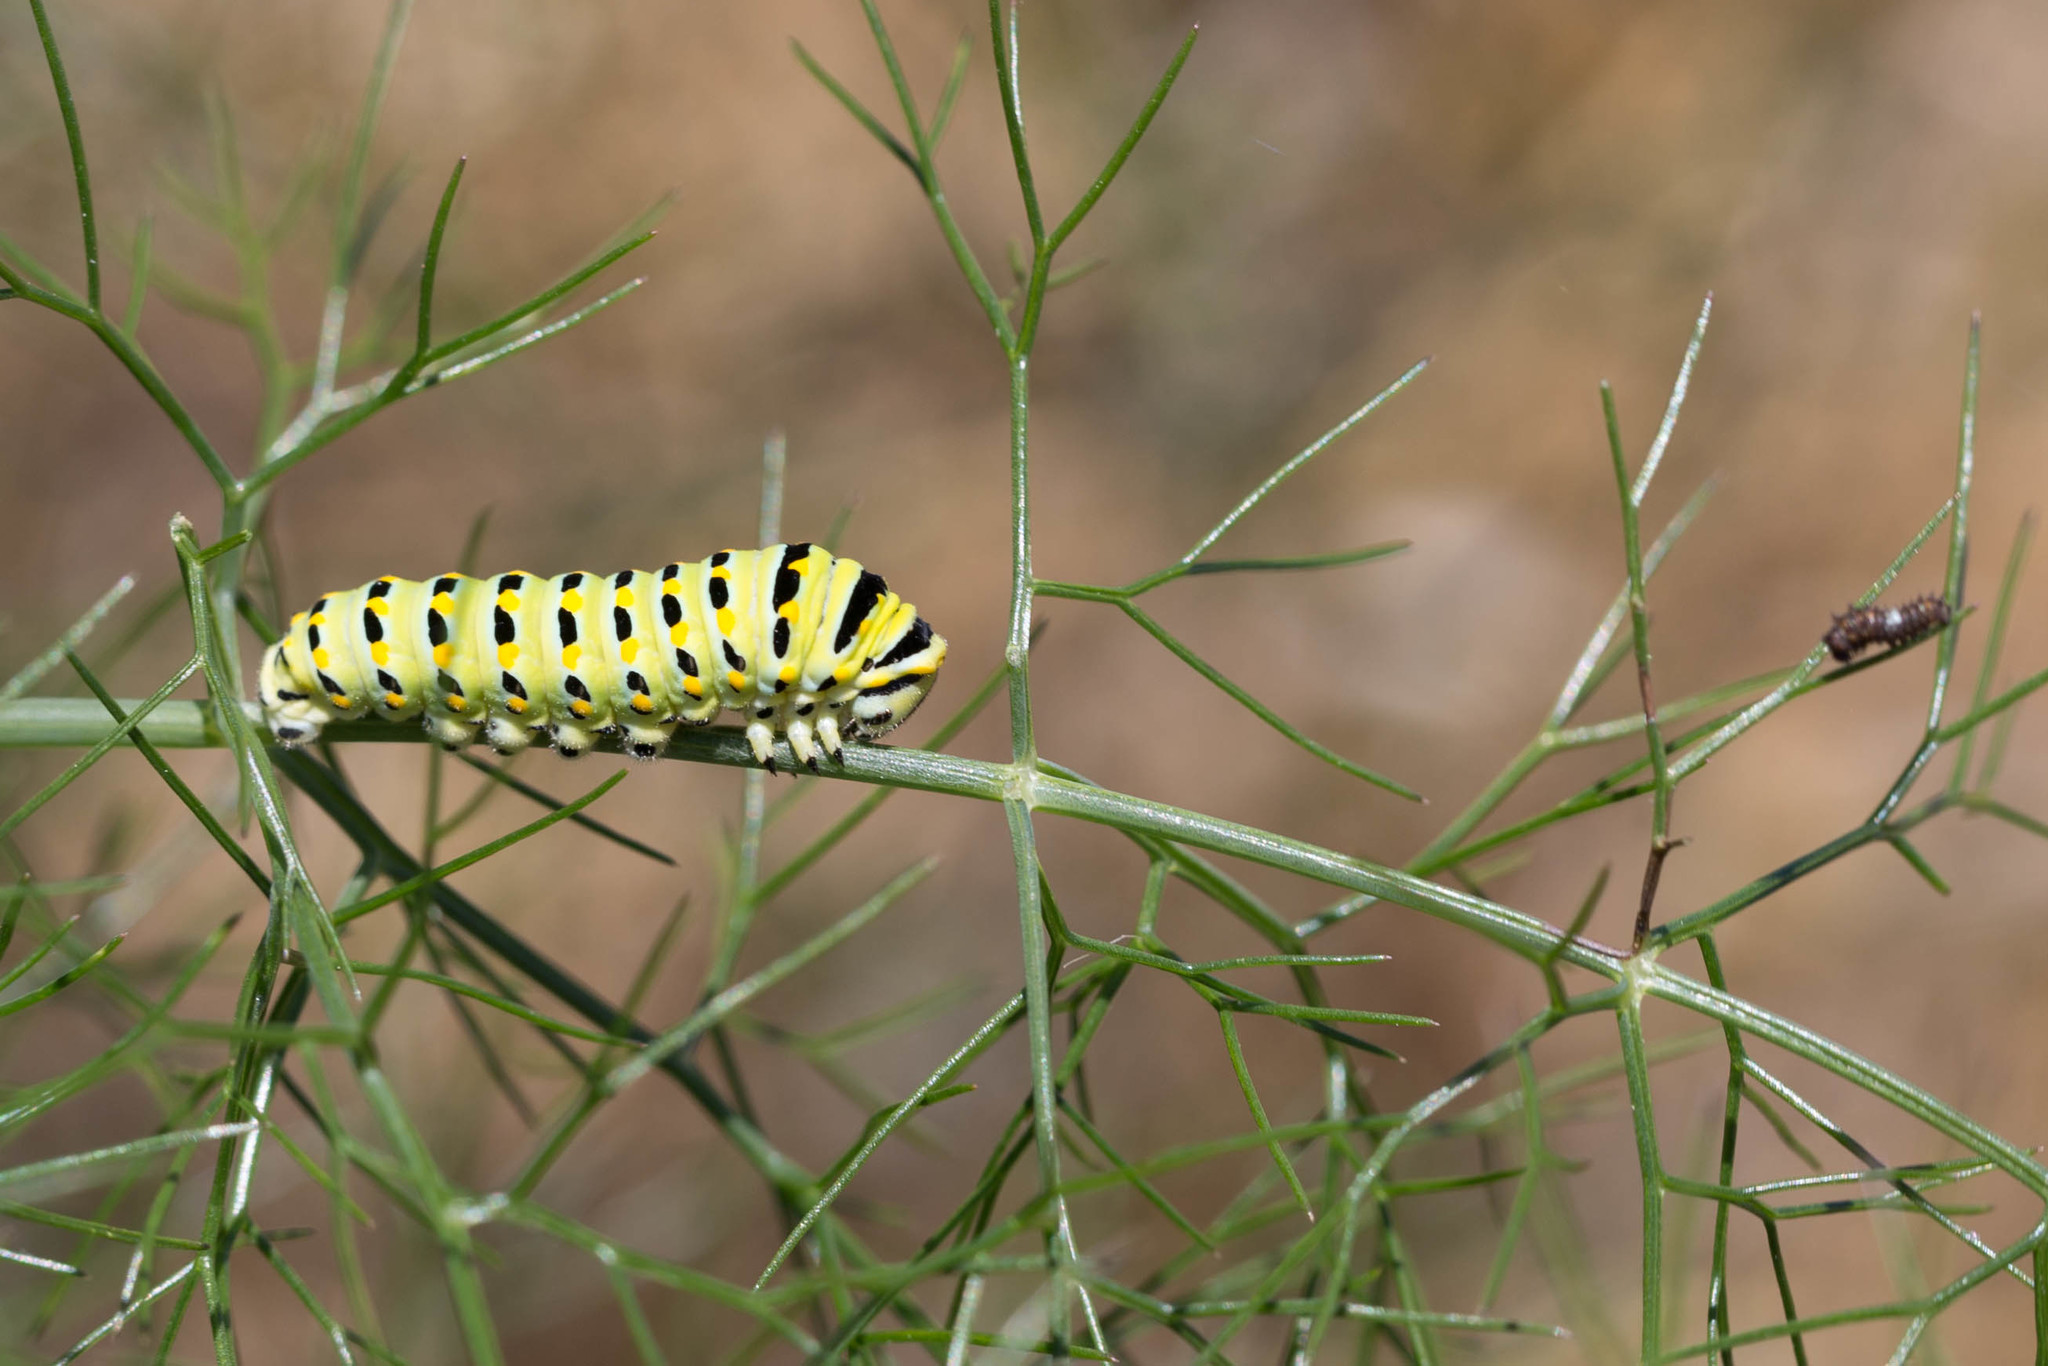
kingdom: Animalia
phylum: Arthropoda
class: Insecta
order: Lepidoptera
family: Papilionidae
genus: Papilio
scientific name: Papilio zelicaon
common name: Anise swallowtail
